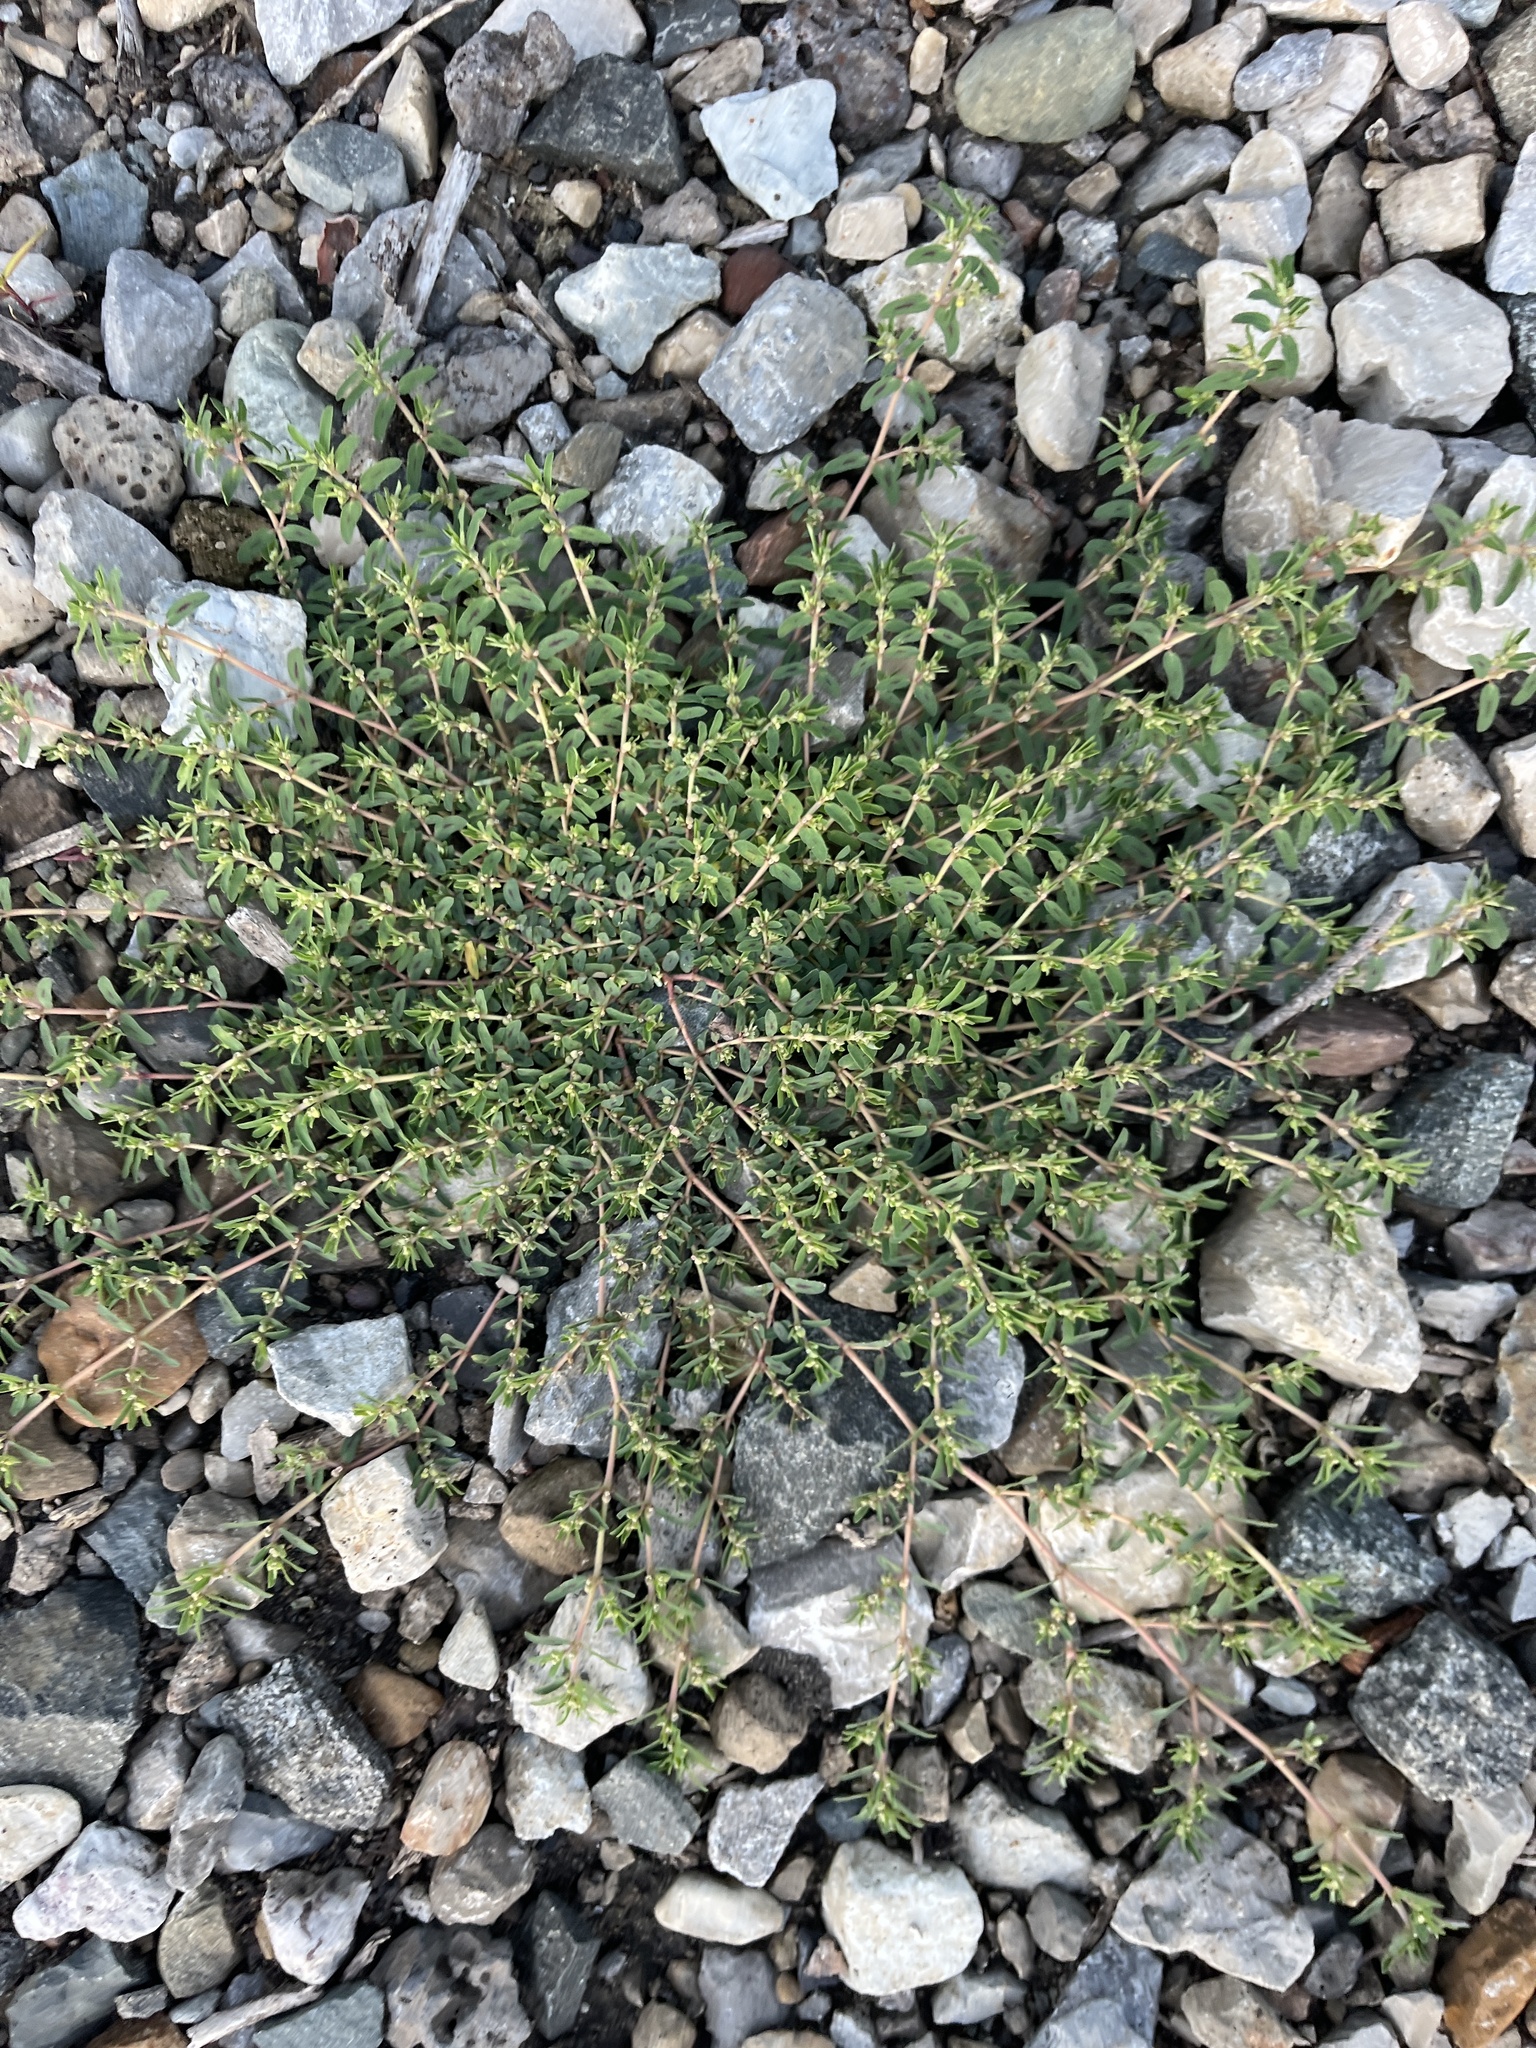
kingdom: Plantae
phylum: Tracheophyta
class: Magnoliopsida
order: Malpighiales
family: Euphorbiaceae
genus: Euphorbia
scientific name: Euphorbia maculata
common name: Spotted spurge
